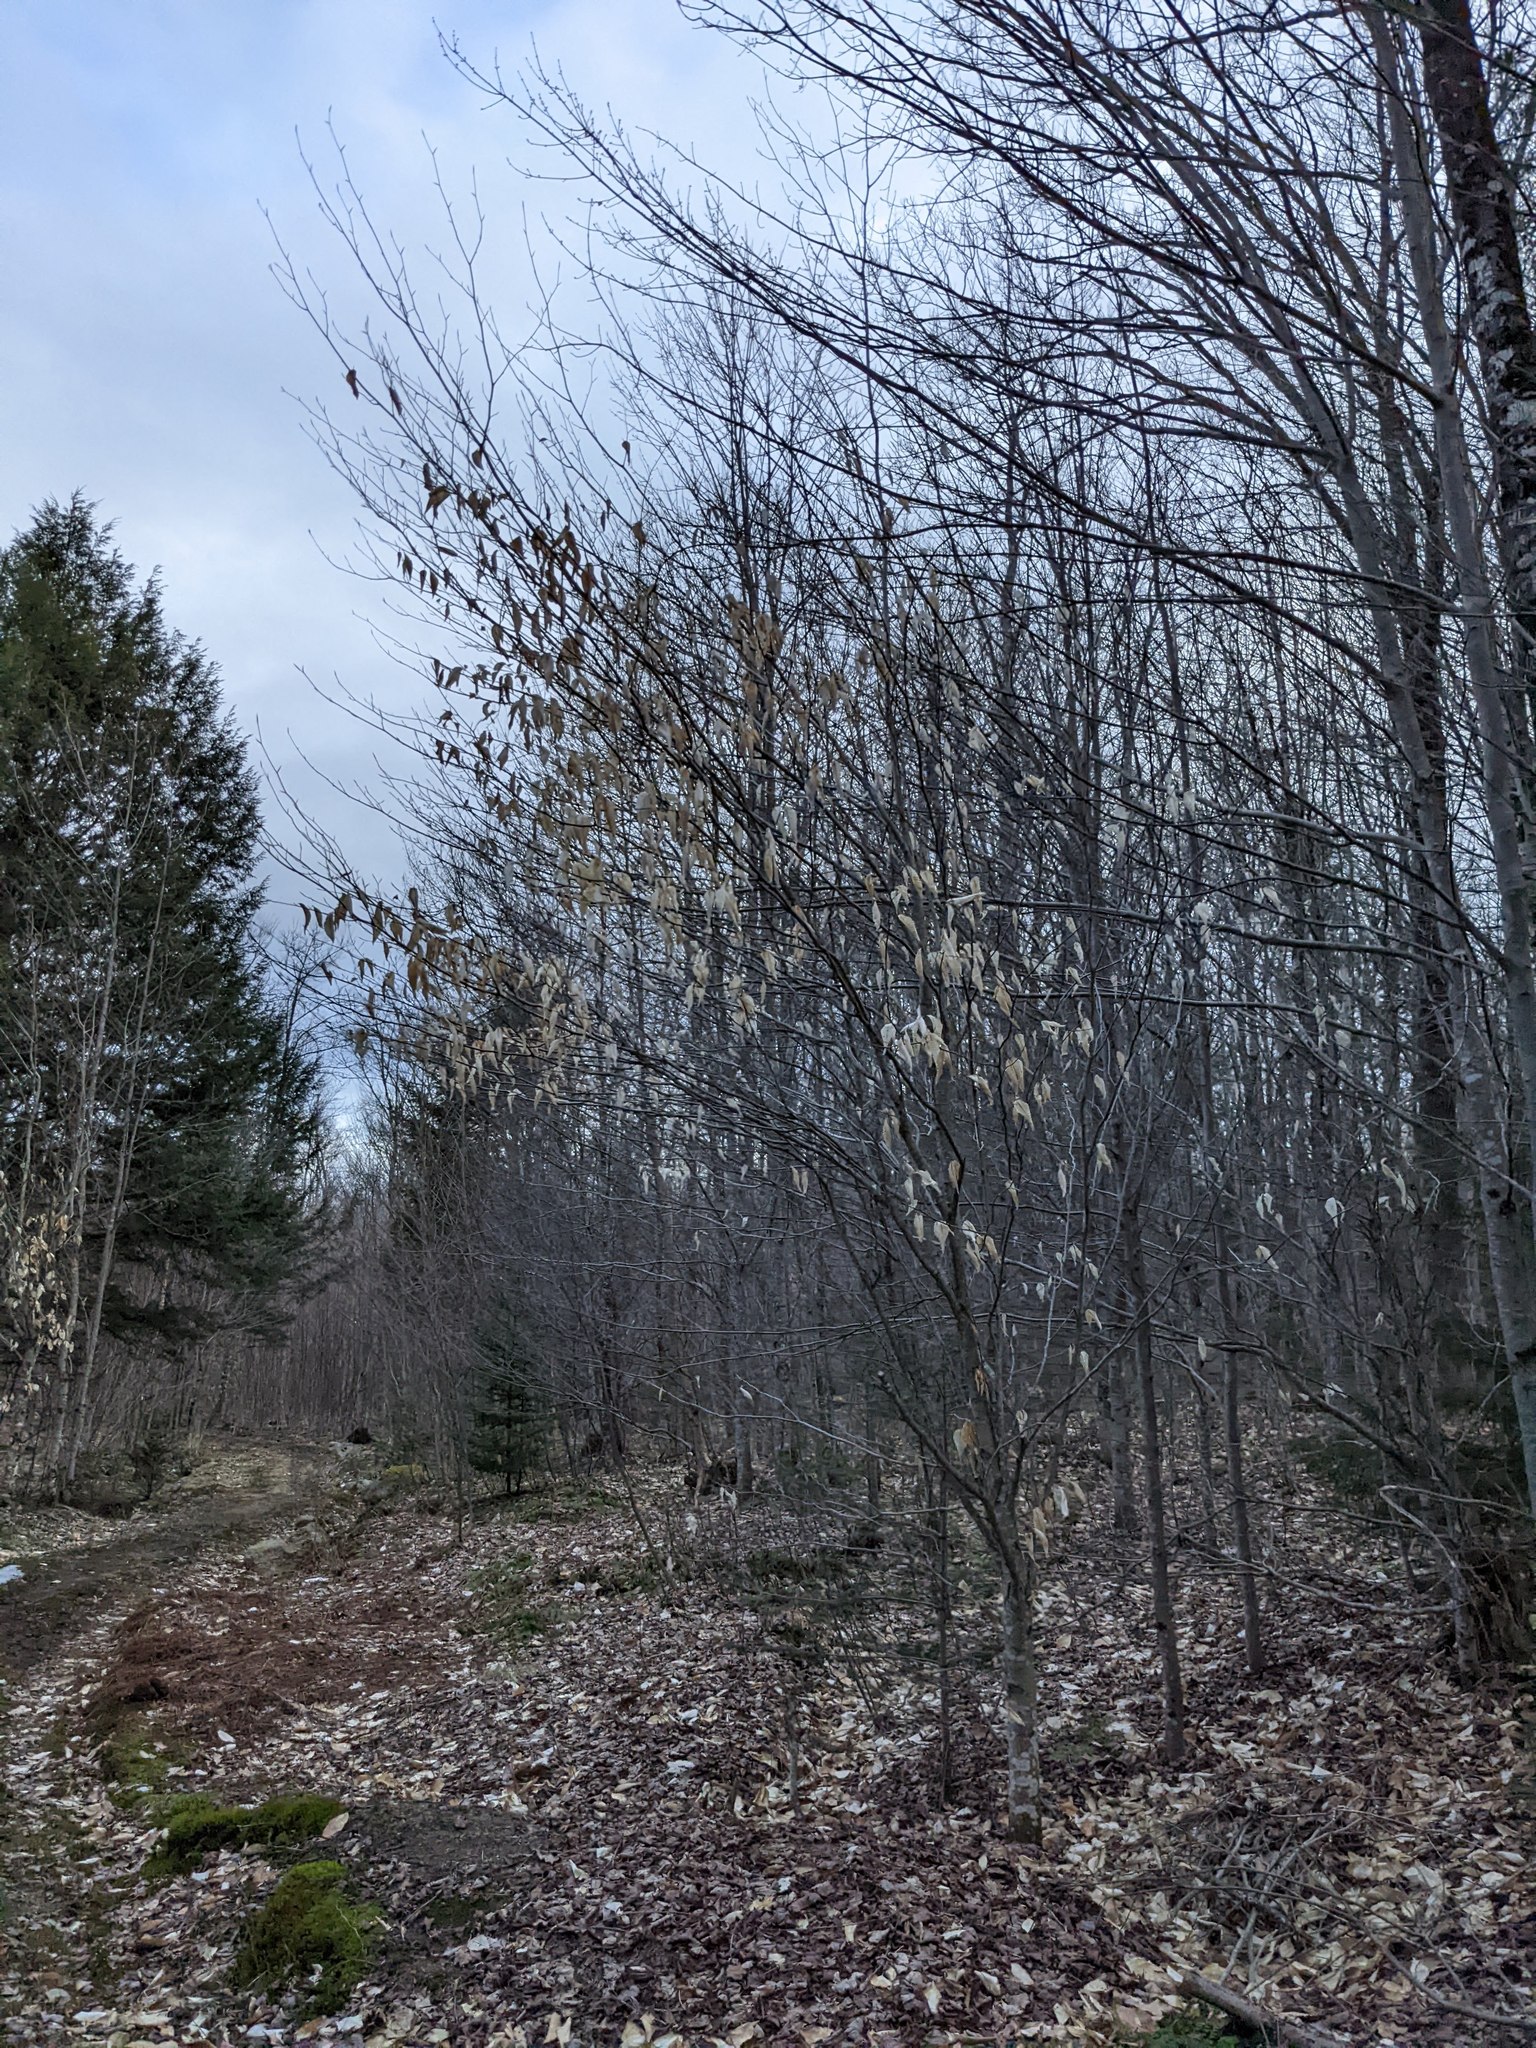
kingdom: Plantae
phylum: Tracheophyta
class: Magnoliopsida
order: Fagales
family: Fagaceae
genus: Fagus
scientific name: Fagus grandifolia
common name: American beech
